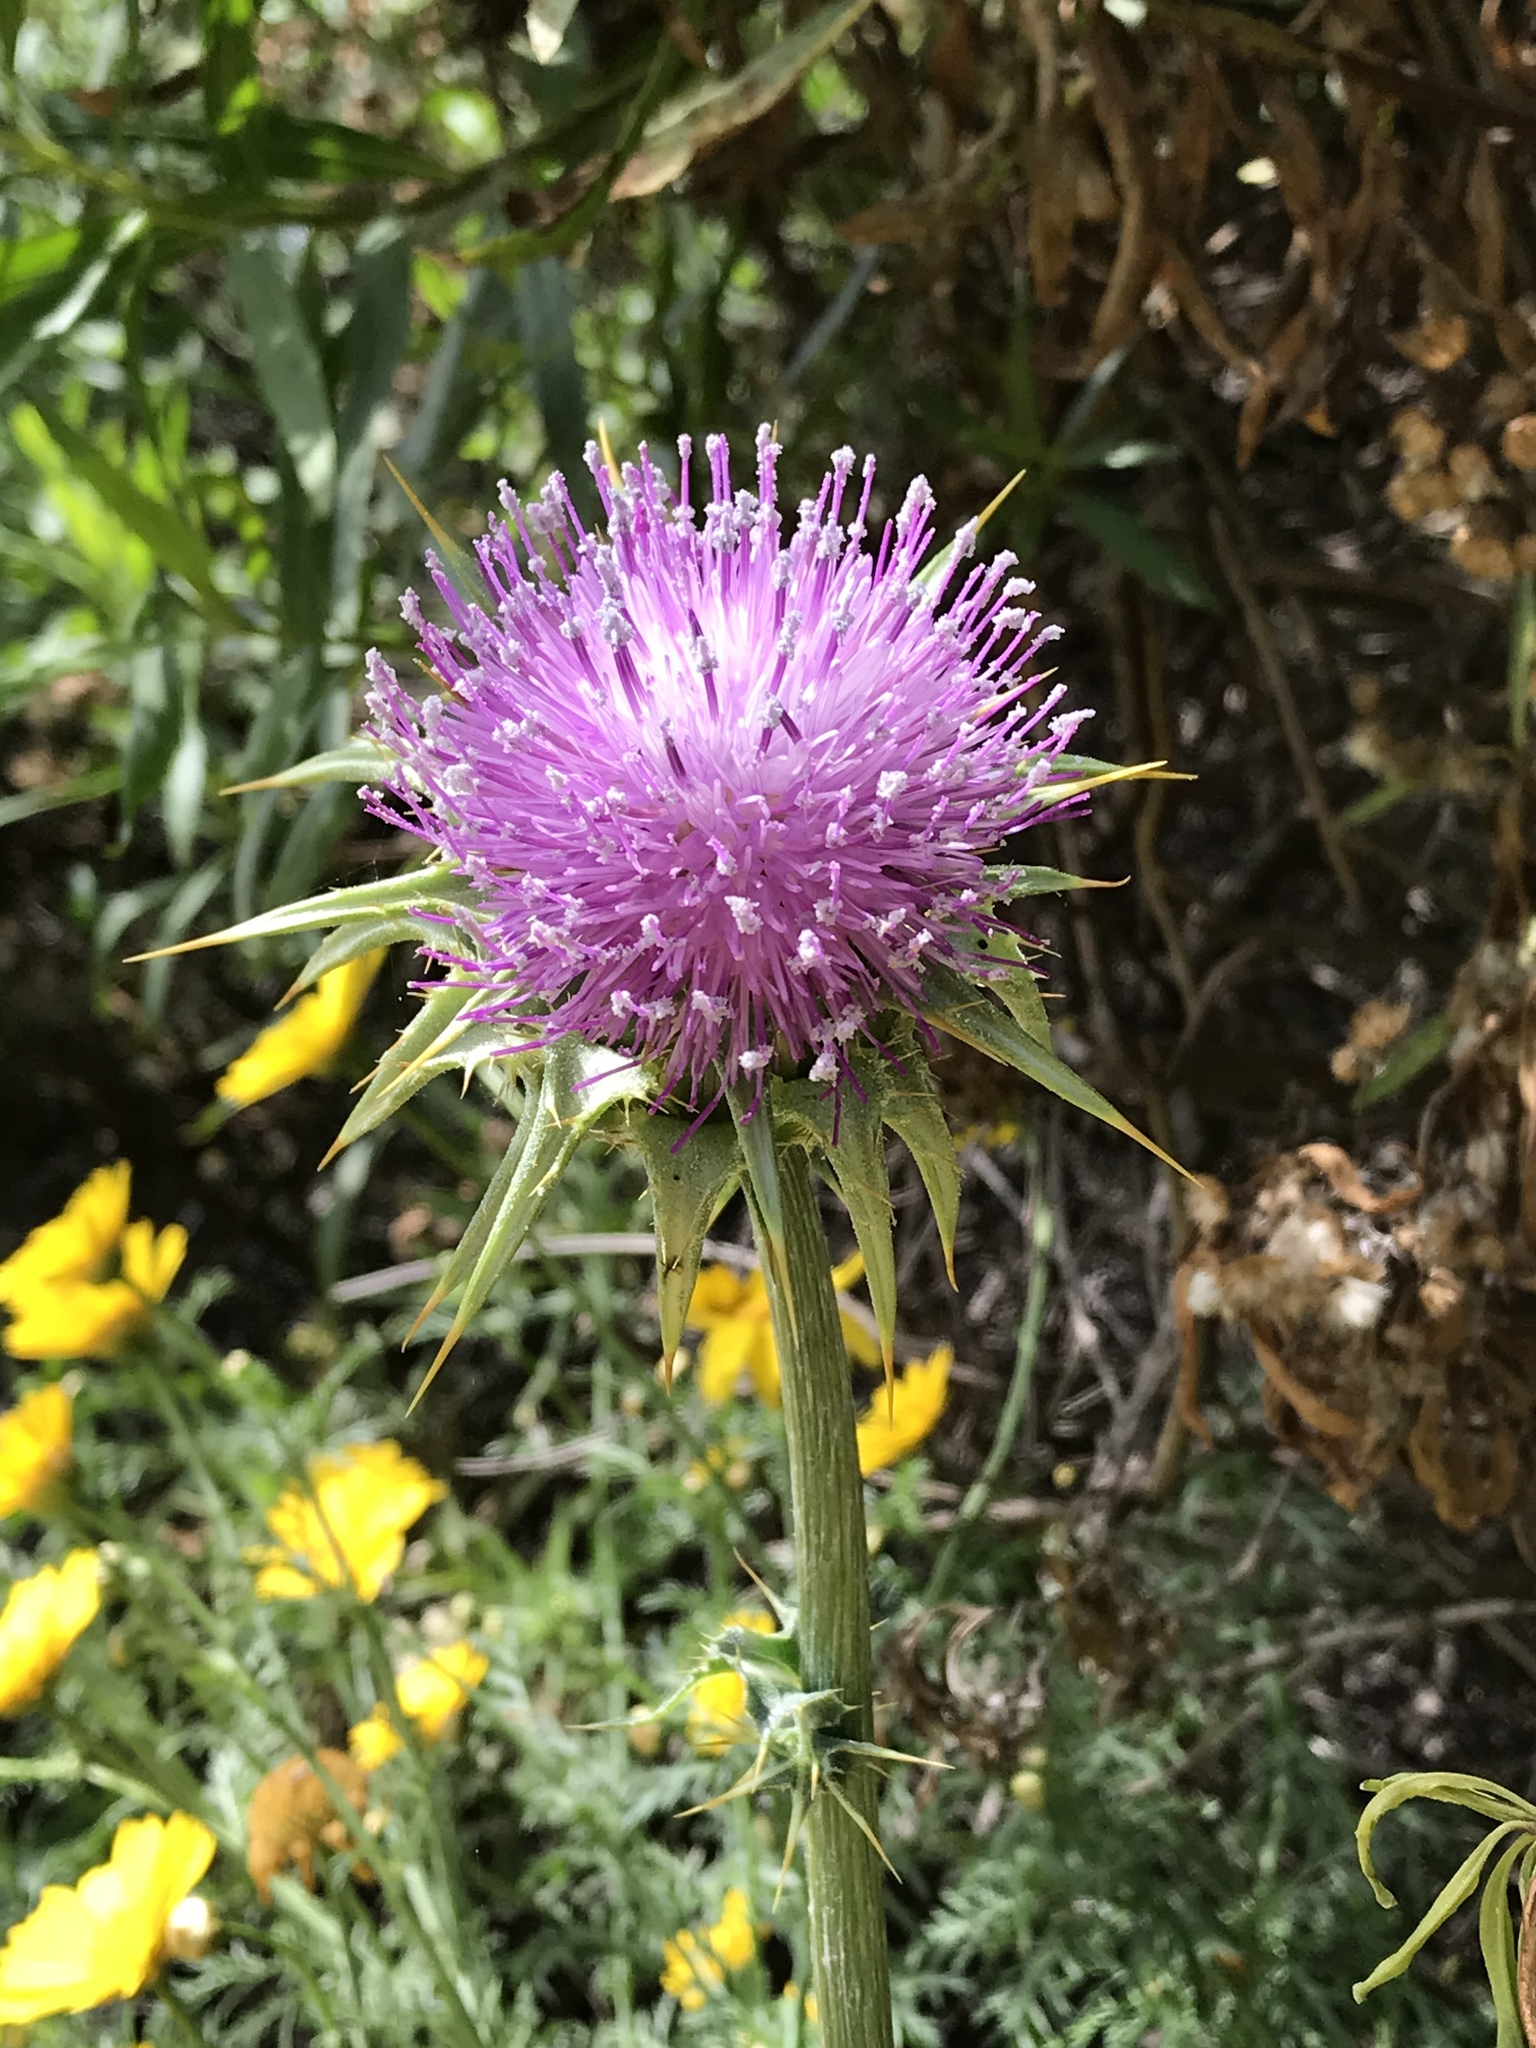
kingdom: Plantae
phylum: Tracheophyta
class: Magnoliopsida
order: Asterales
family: Asteraceae
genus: Silybum
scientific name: Silybum marianum
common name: Milk thistle
